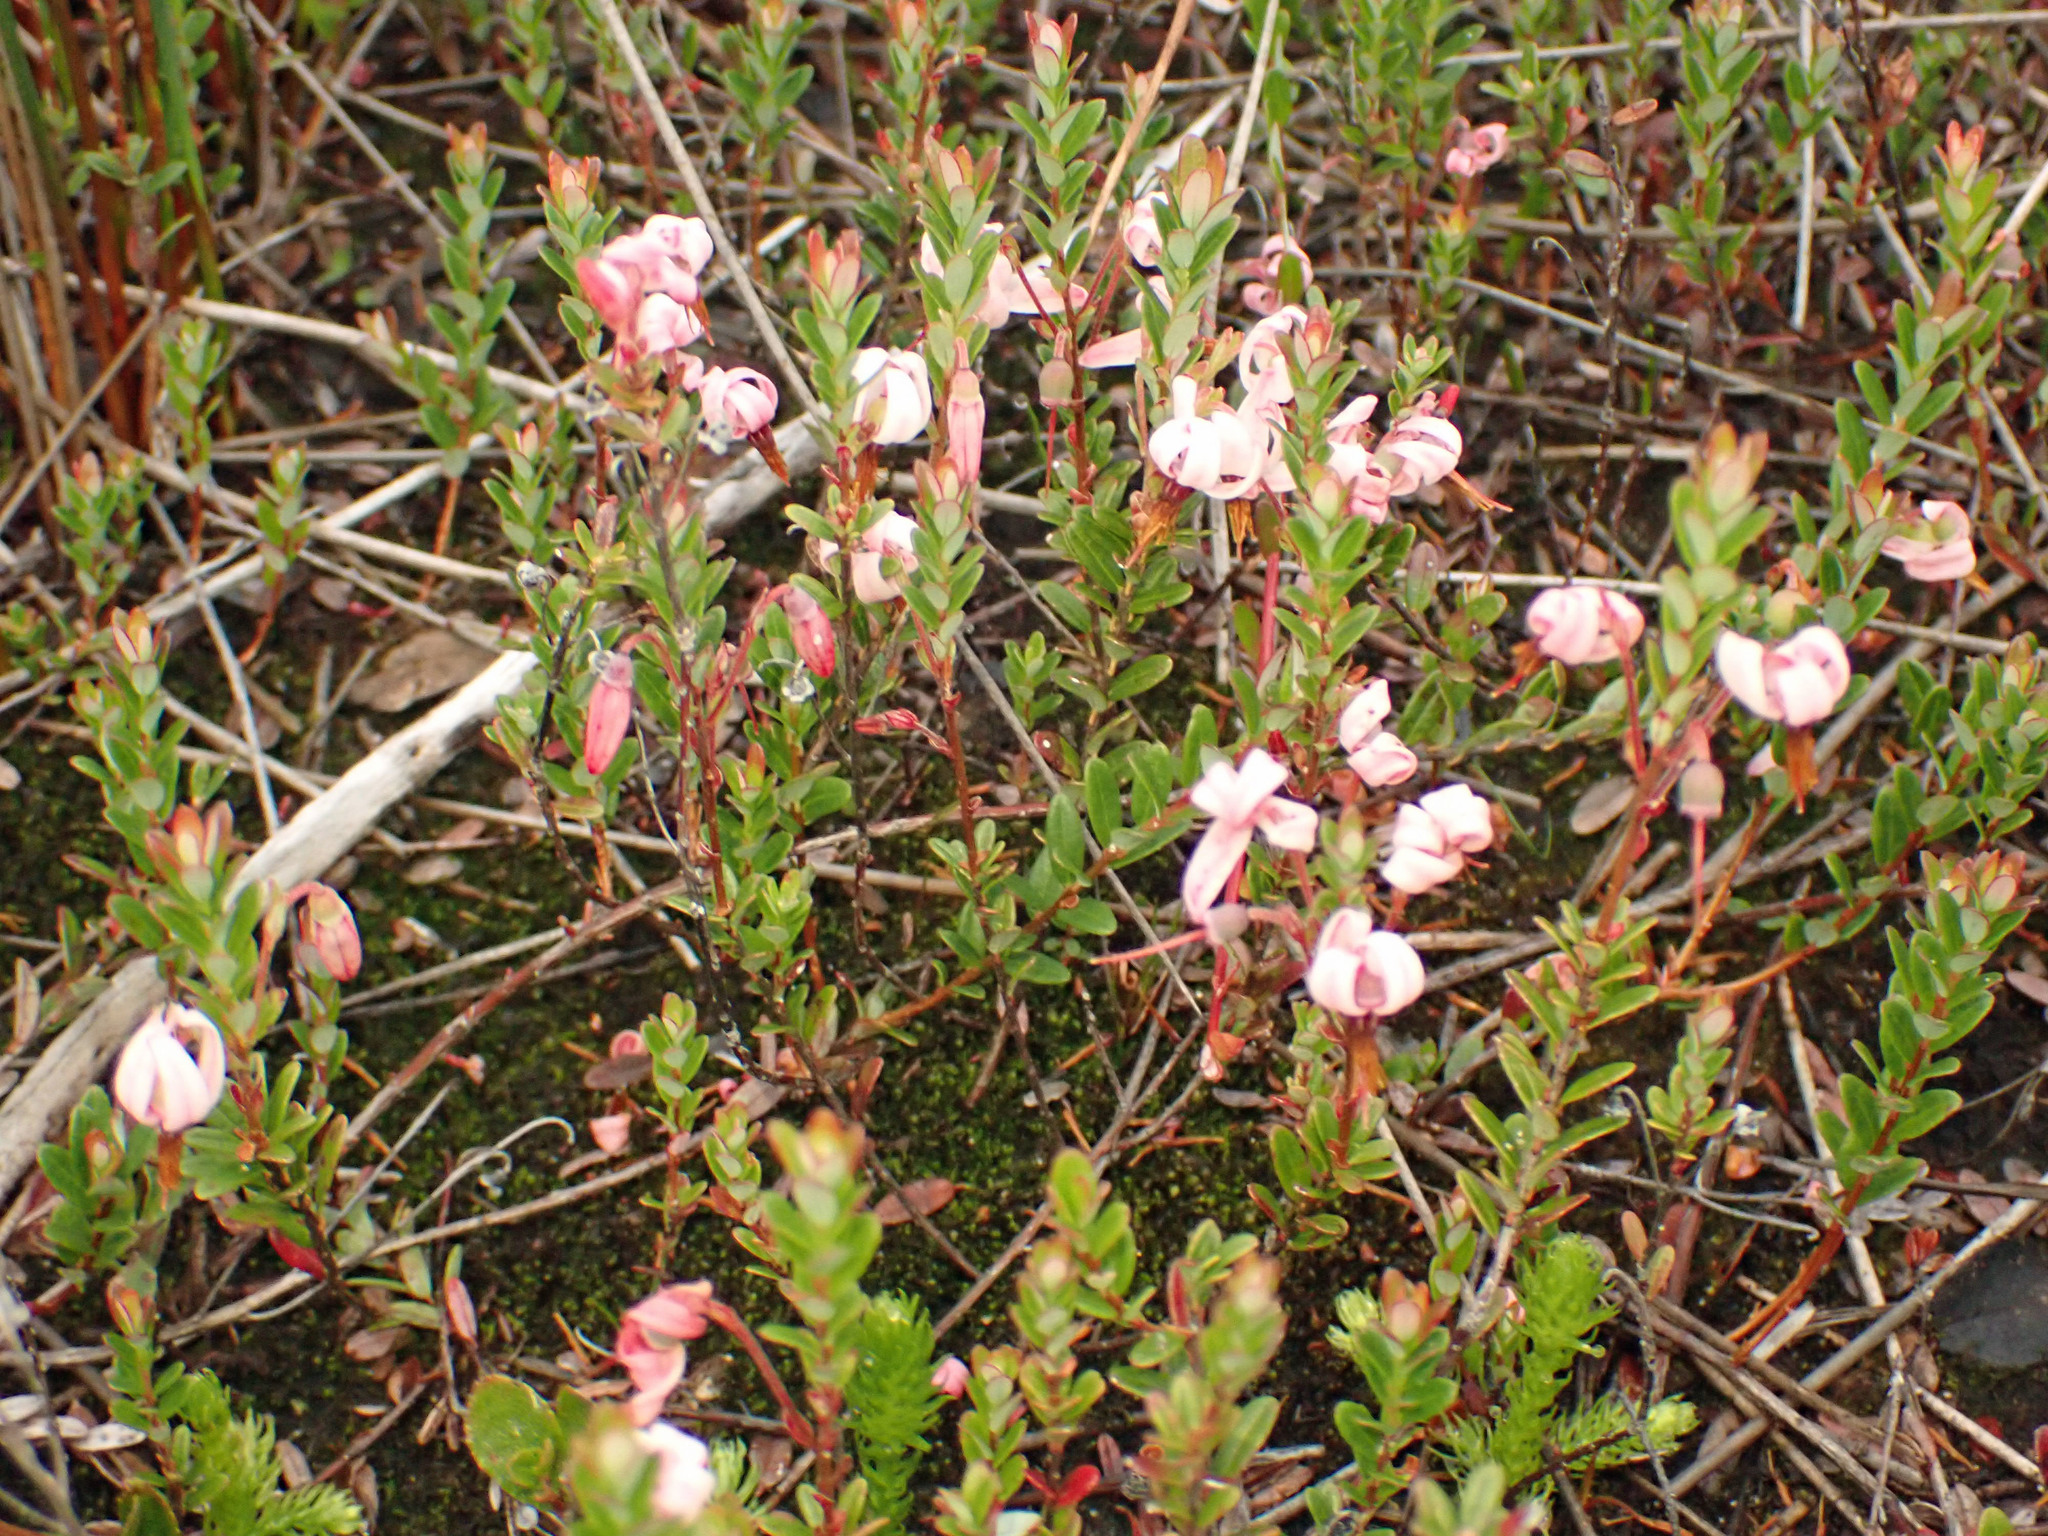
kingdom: Plantae
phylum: Tracheophyta
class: Magnoliopsida
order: Ericales
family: Ericaceae
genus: Vaccinium
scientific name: Vaccinium macrocarpon
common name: American cranberry
